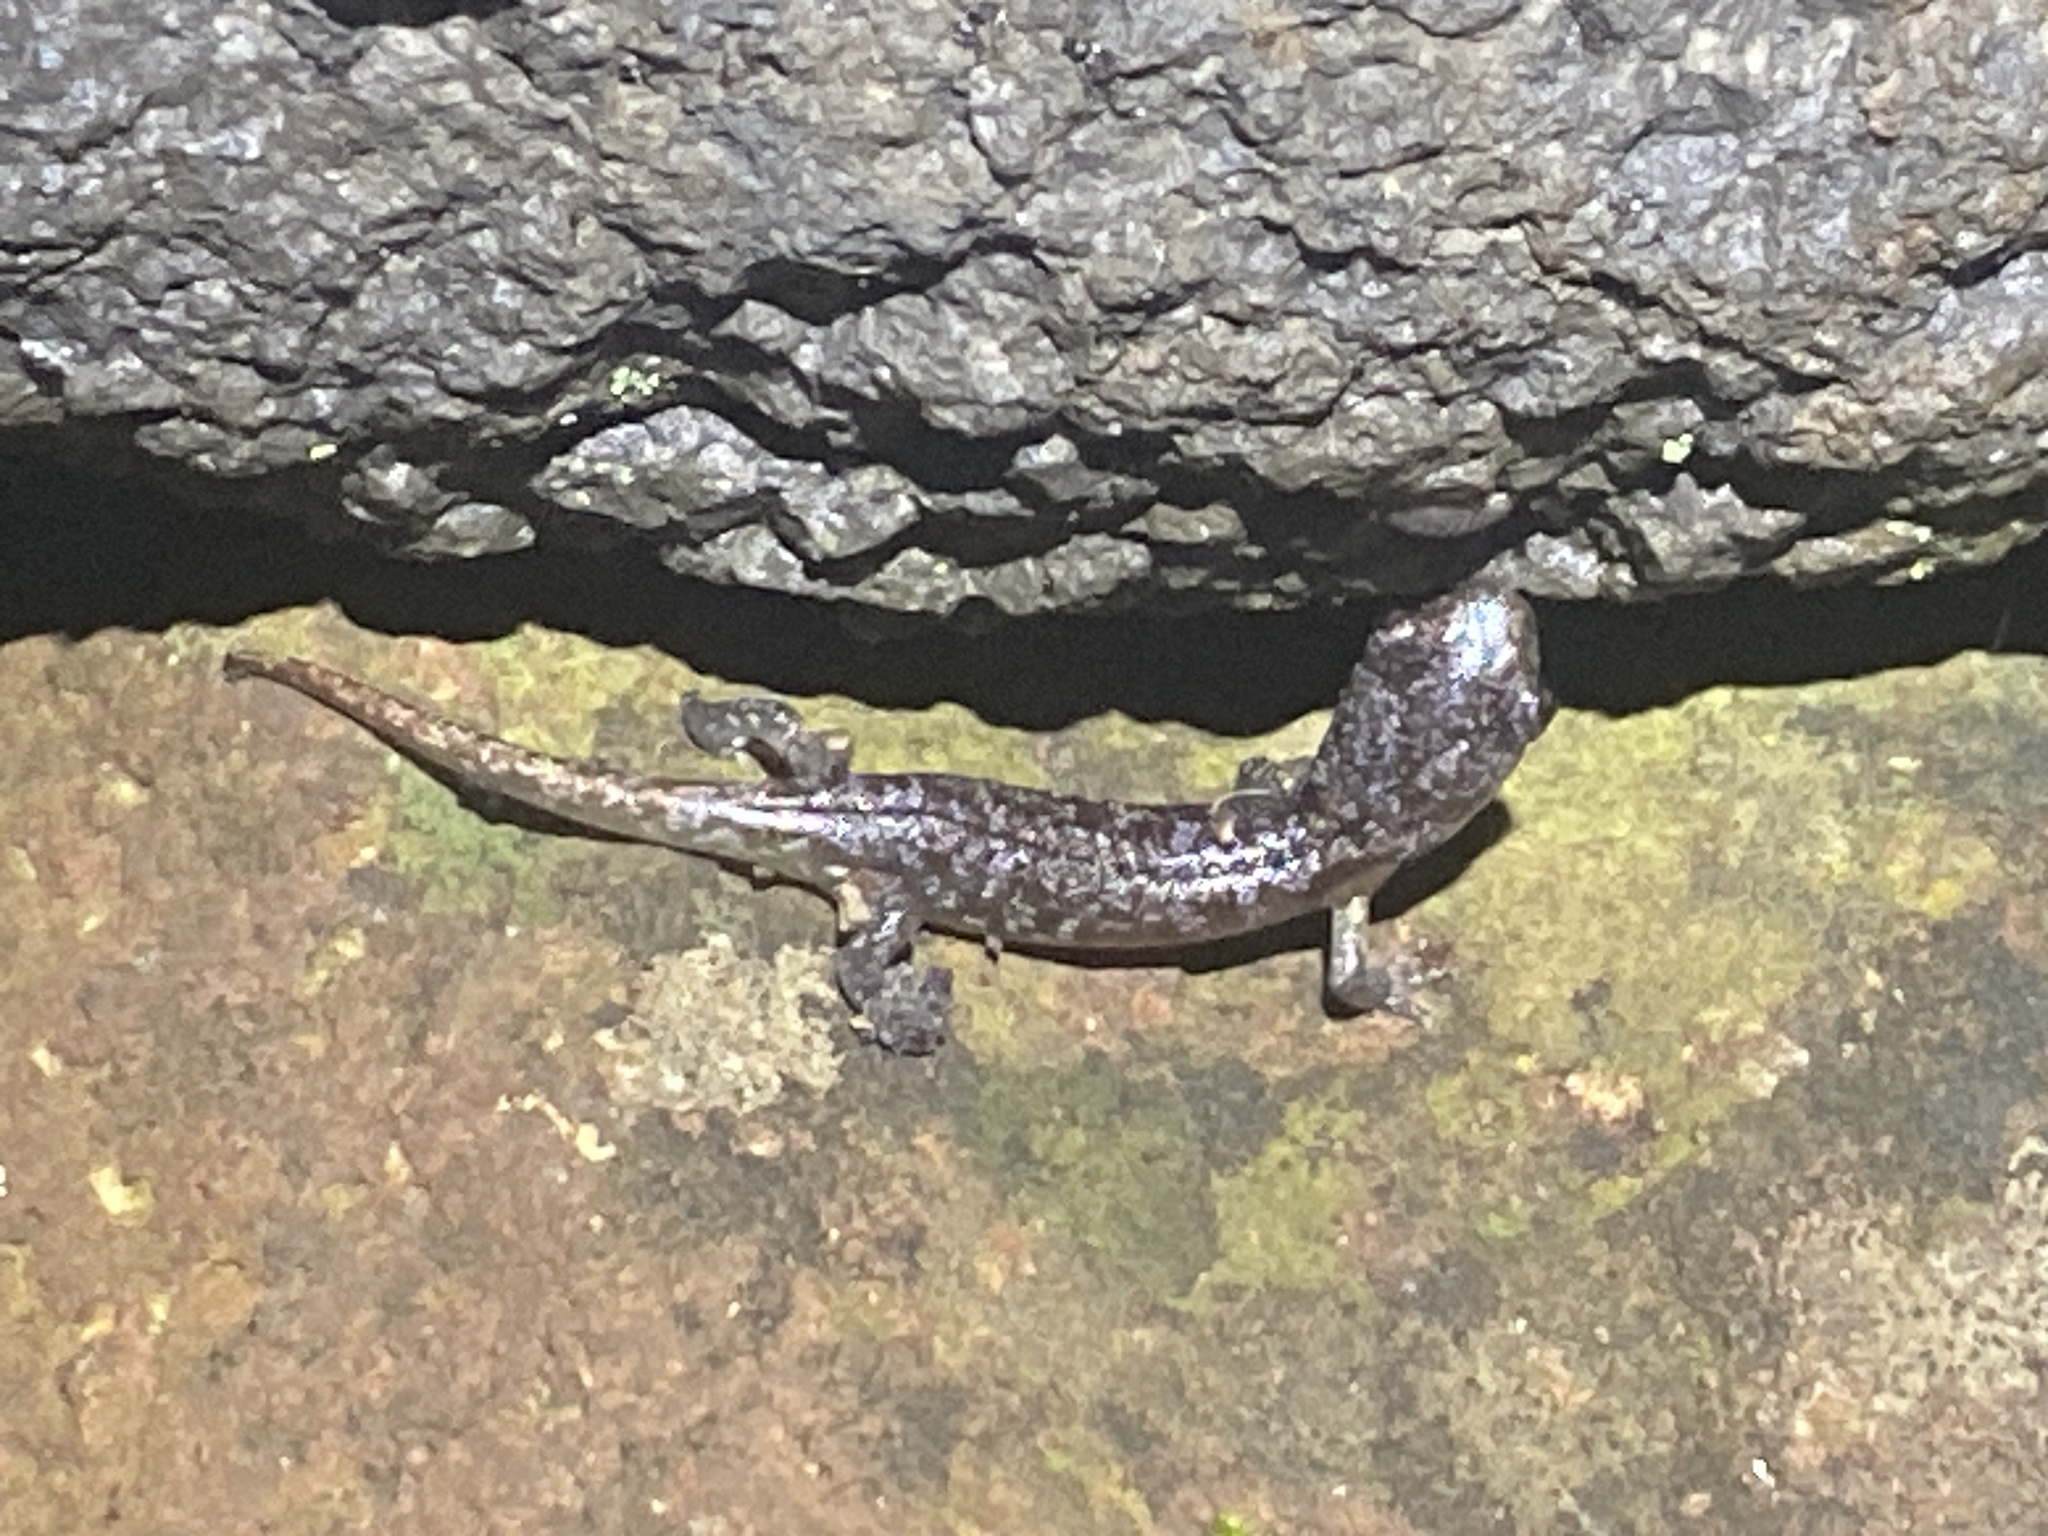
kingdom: Animalia
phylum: Chordata
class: Amphibia
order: Caudata
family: Plethodontidae
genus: Aneides
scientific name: Aneides lugubris
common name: Arboreal salamander
